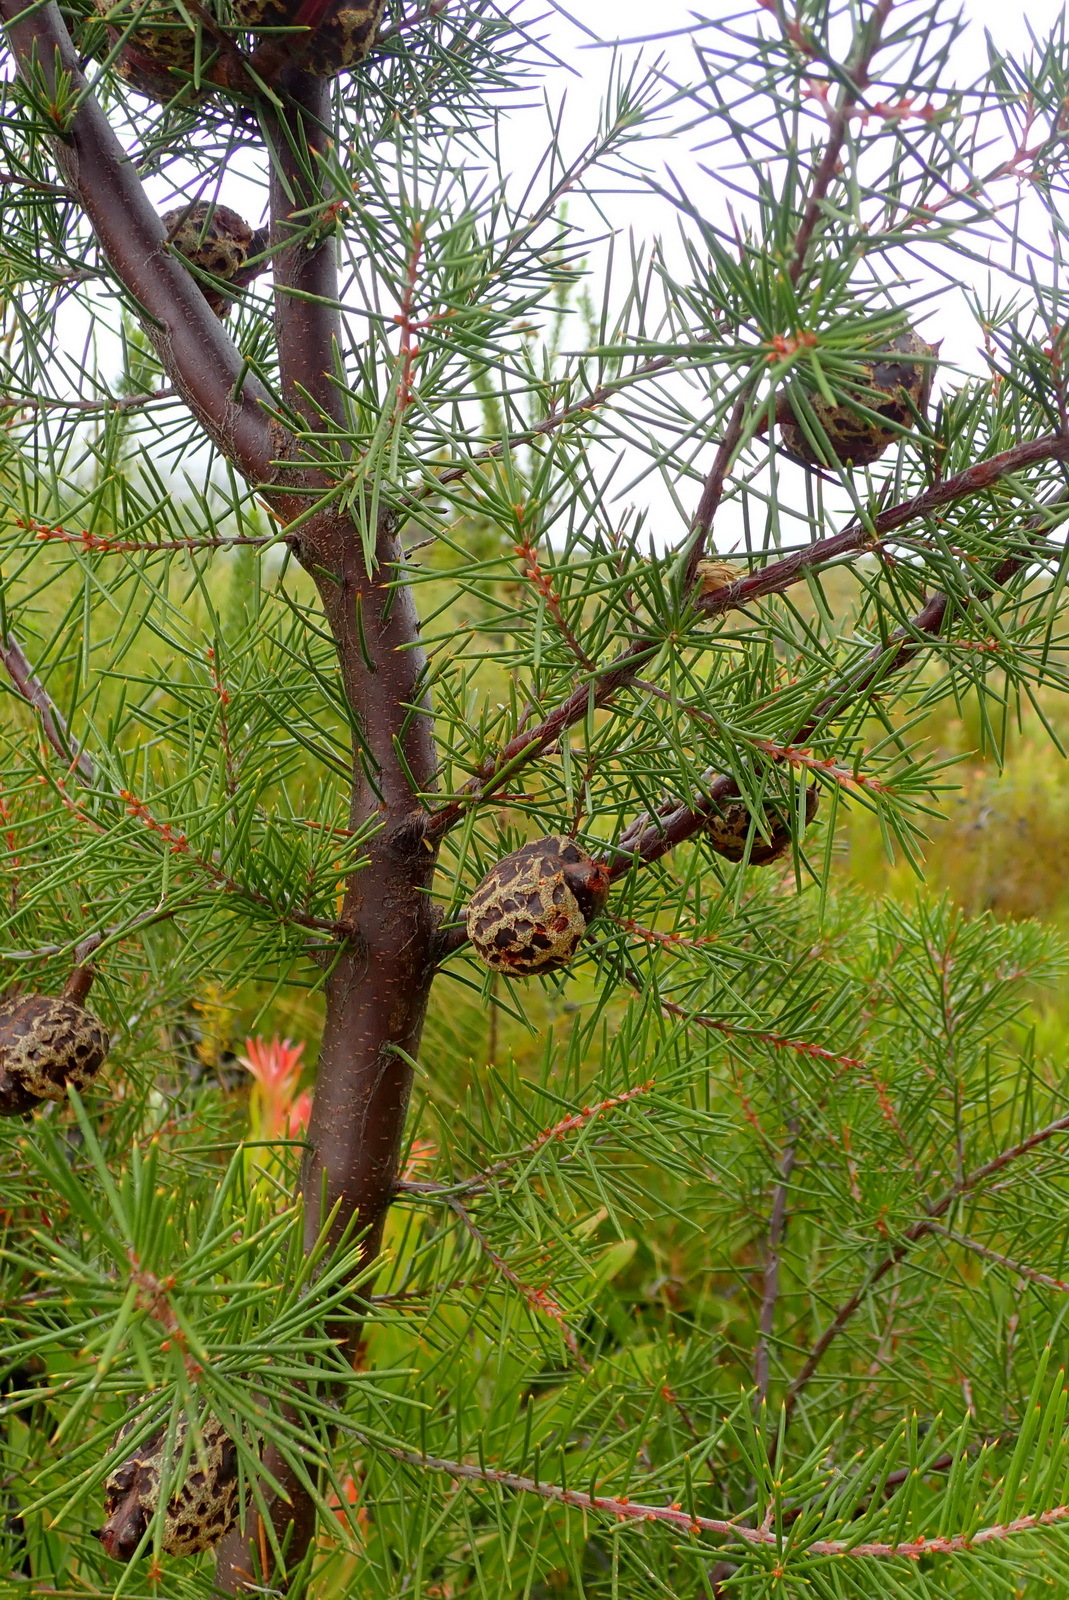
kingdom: Plantae
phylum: Tracheophyta
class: Magnoliopsida
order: Proteales
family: Proteaceae
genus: Hakea
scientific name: Hakea sericea
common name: Needle bush
